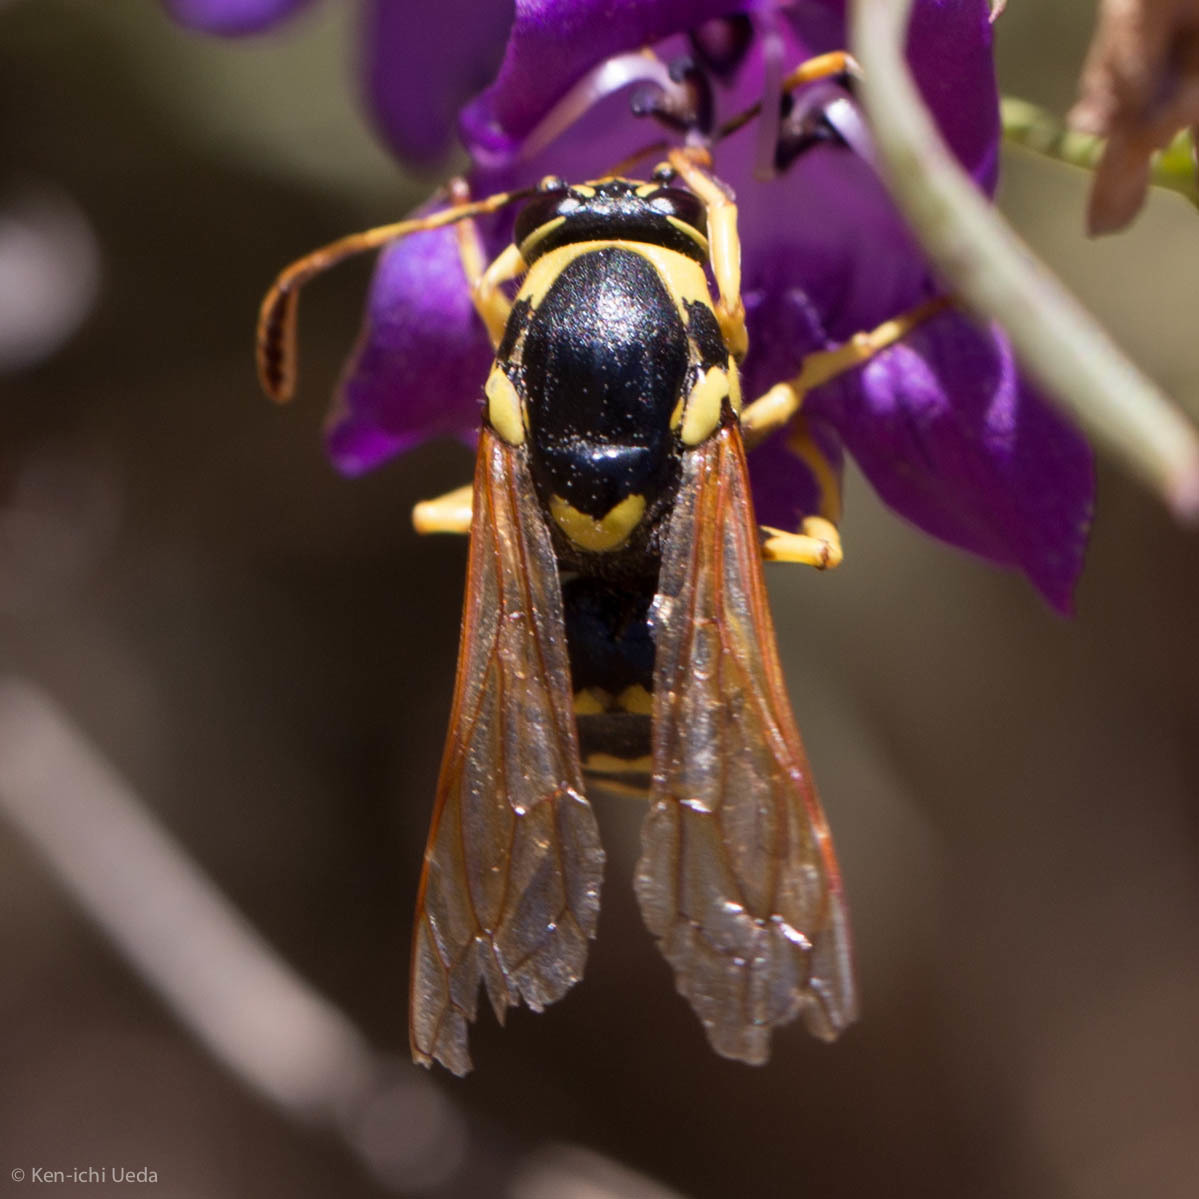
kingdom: Animalia
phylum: Arthropoda
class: Insecta
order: Hymenoptera
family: Masaridae
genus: Pseudomasaris
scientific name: Pseudomasaris vespoides
